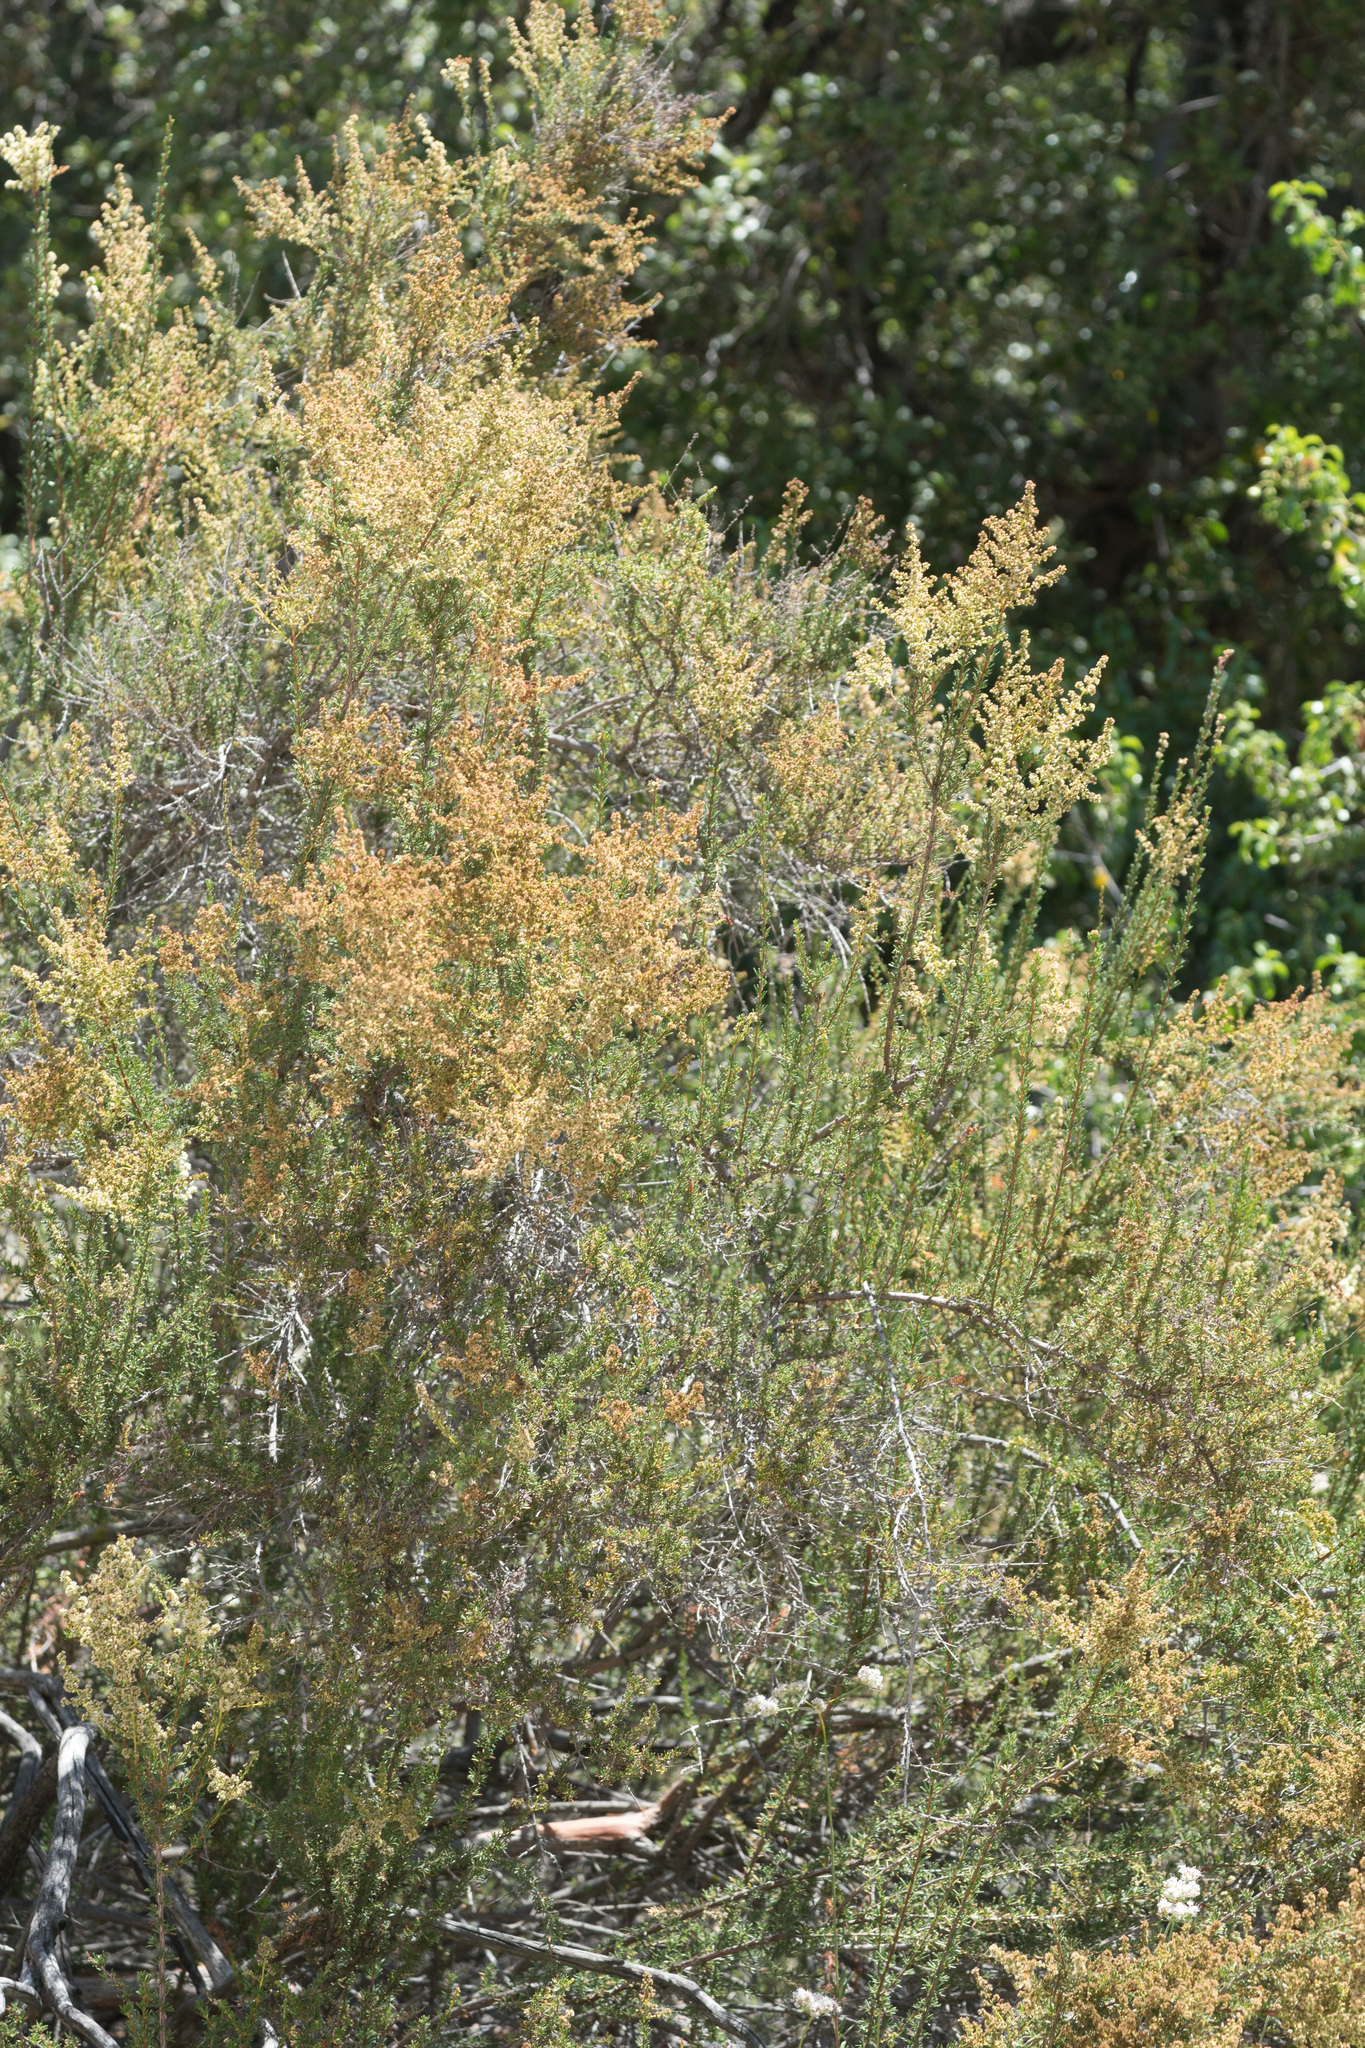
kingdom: Plantae
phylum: Tracheophyta
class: Magnoliopsida
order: Rosales
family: Rosaceae
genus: Adenostoma
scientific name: Adenostoma fasciculatum
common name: Chamise
